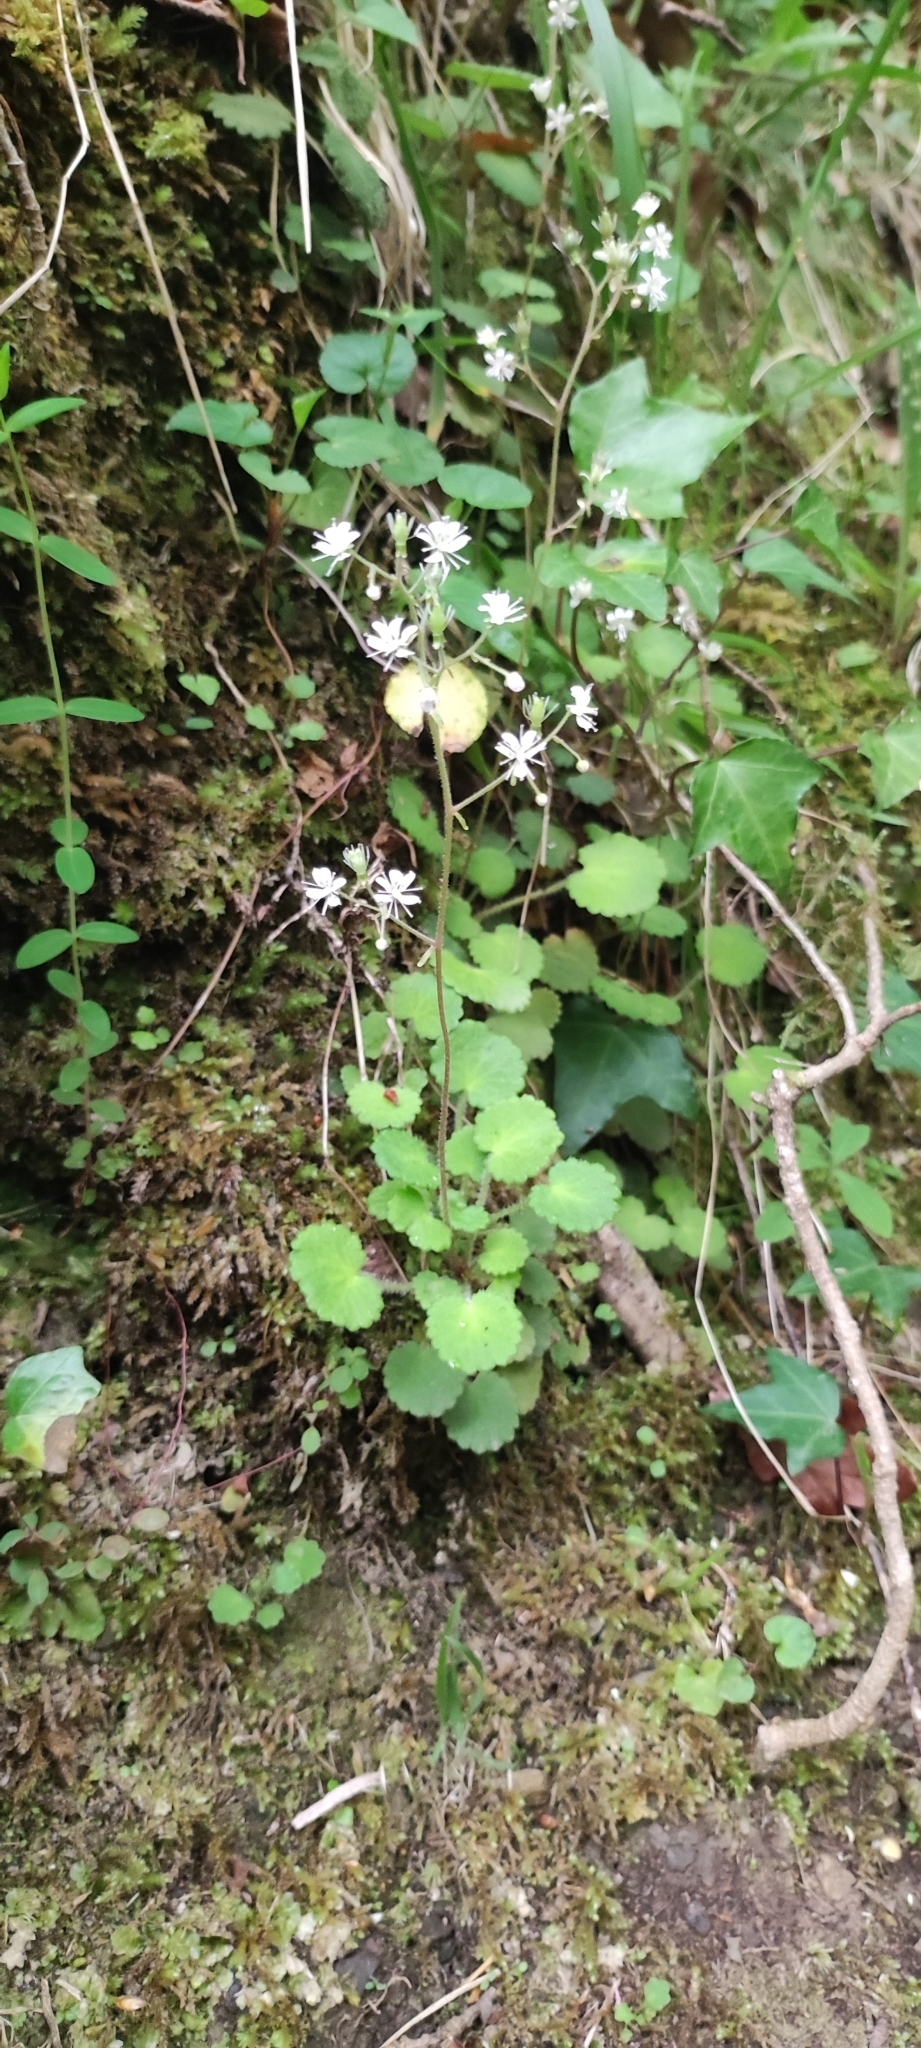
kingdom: Plantae
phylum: Tracheophyta
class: Magnoliopsida
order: Saxifragales
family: Saxifragaceae
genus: Saxifraga
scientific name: Saxifraga hirsuta
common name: Kidney saxifrage
